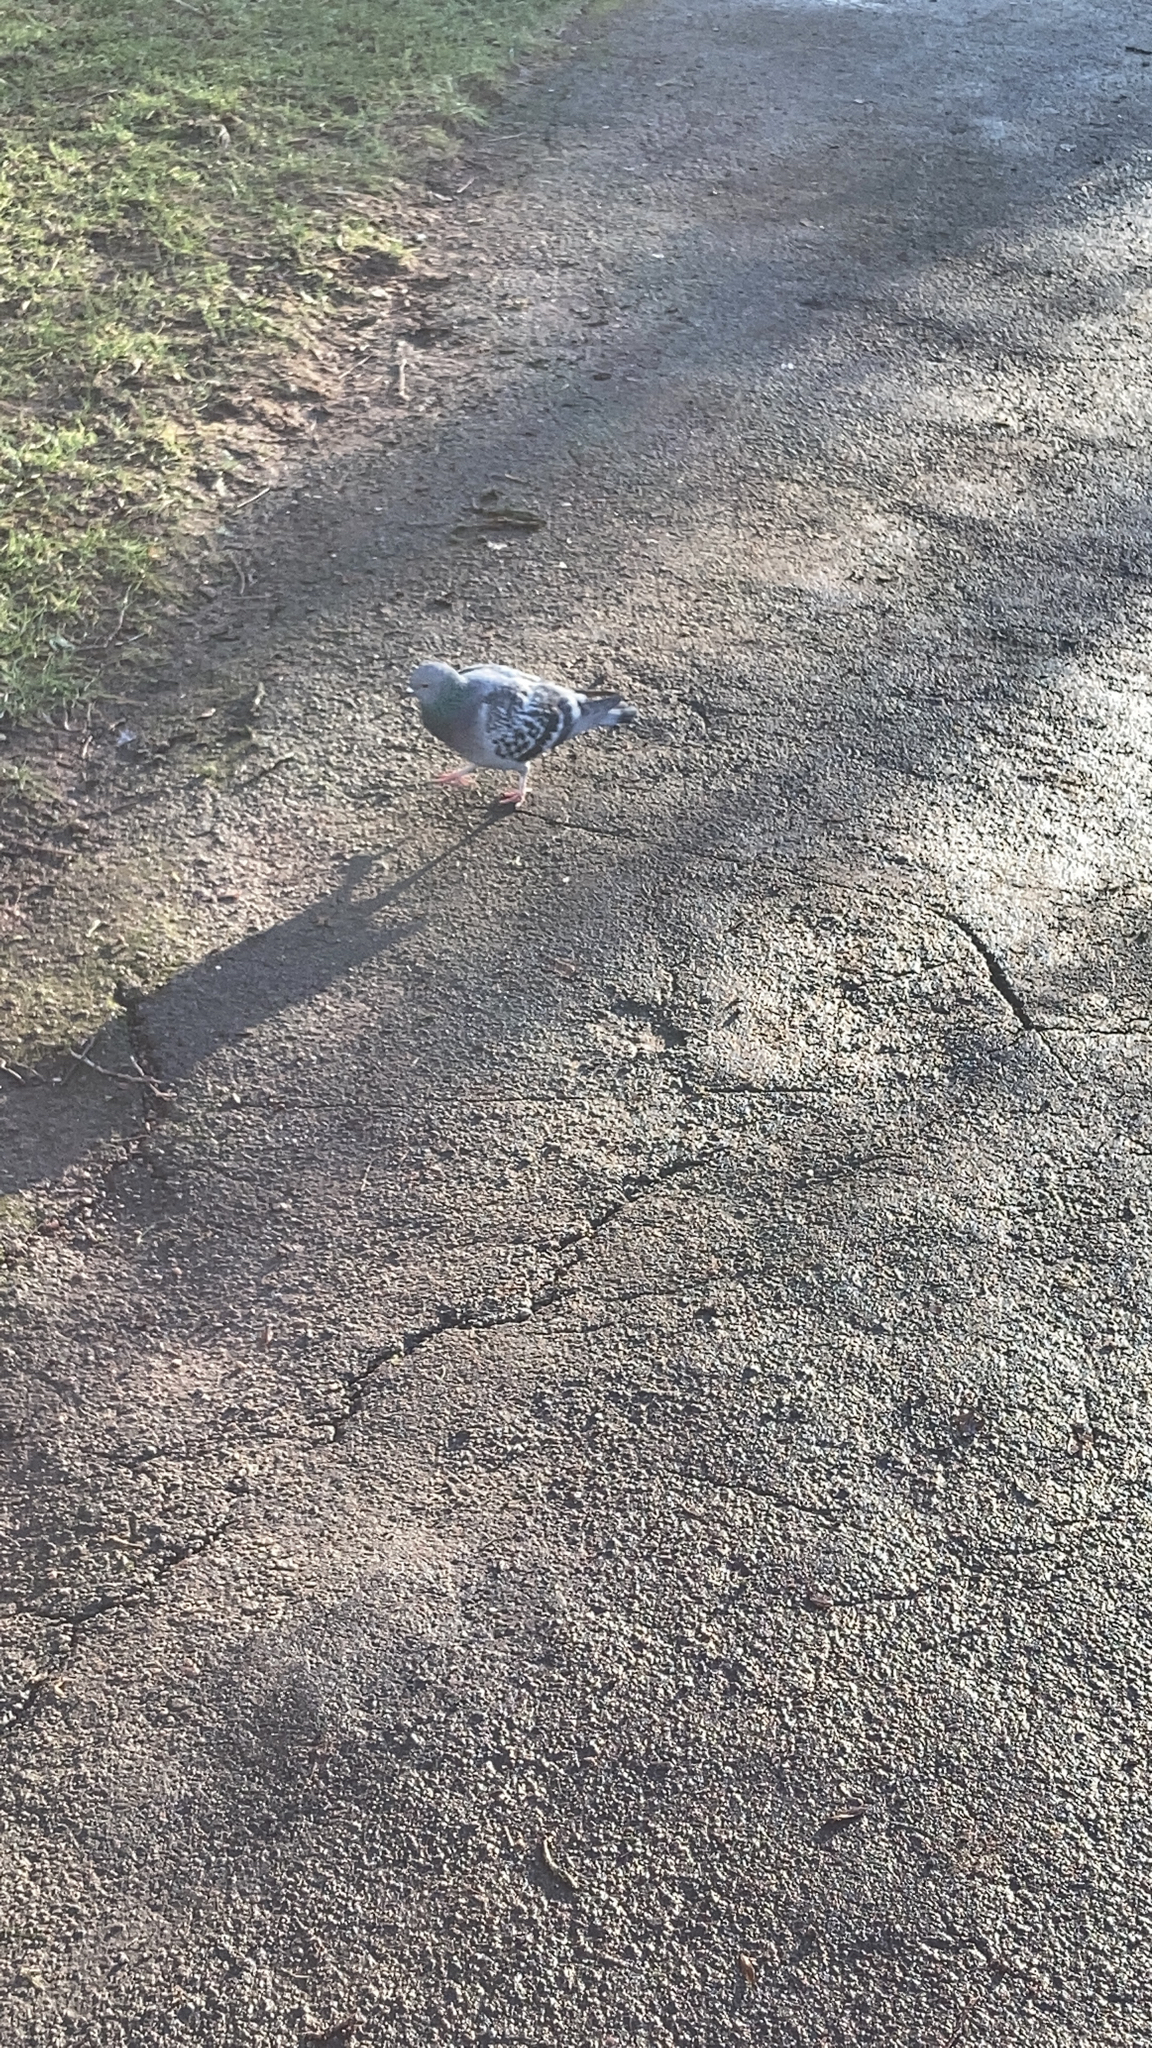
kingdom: Animalia
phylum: Chordata
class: Aves
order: Columbiformes
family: Columbidae
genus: Columba
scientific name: Columba livia
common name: Rock pigeon
